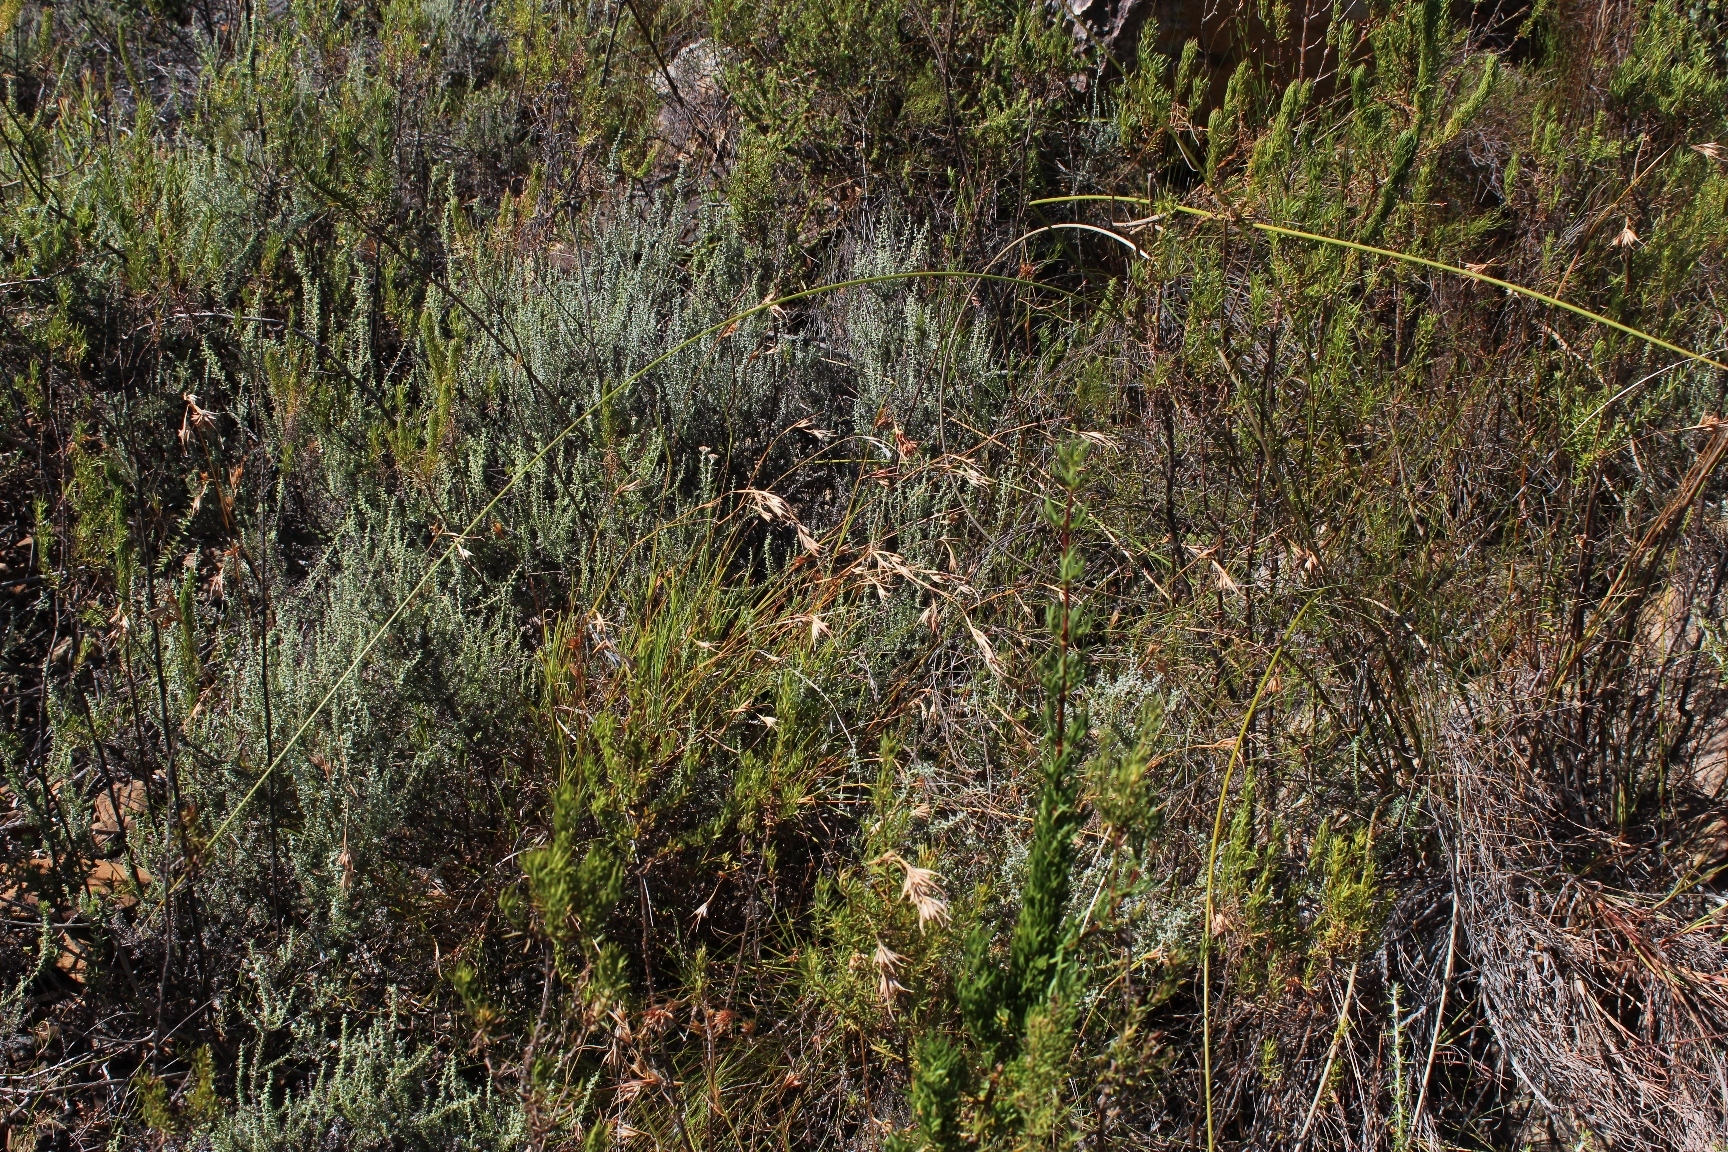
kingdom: Plantae
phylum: Tracheophyta
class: Liliopsida
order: Poales
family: Poaceae
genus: Themeda
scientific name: Themeda triandra
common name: Kangaroo grass
